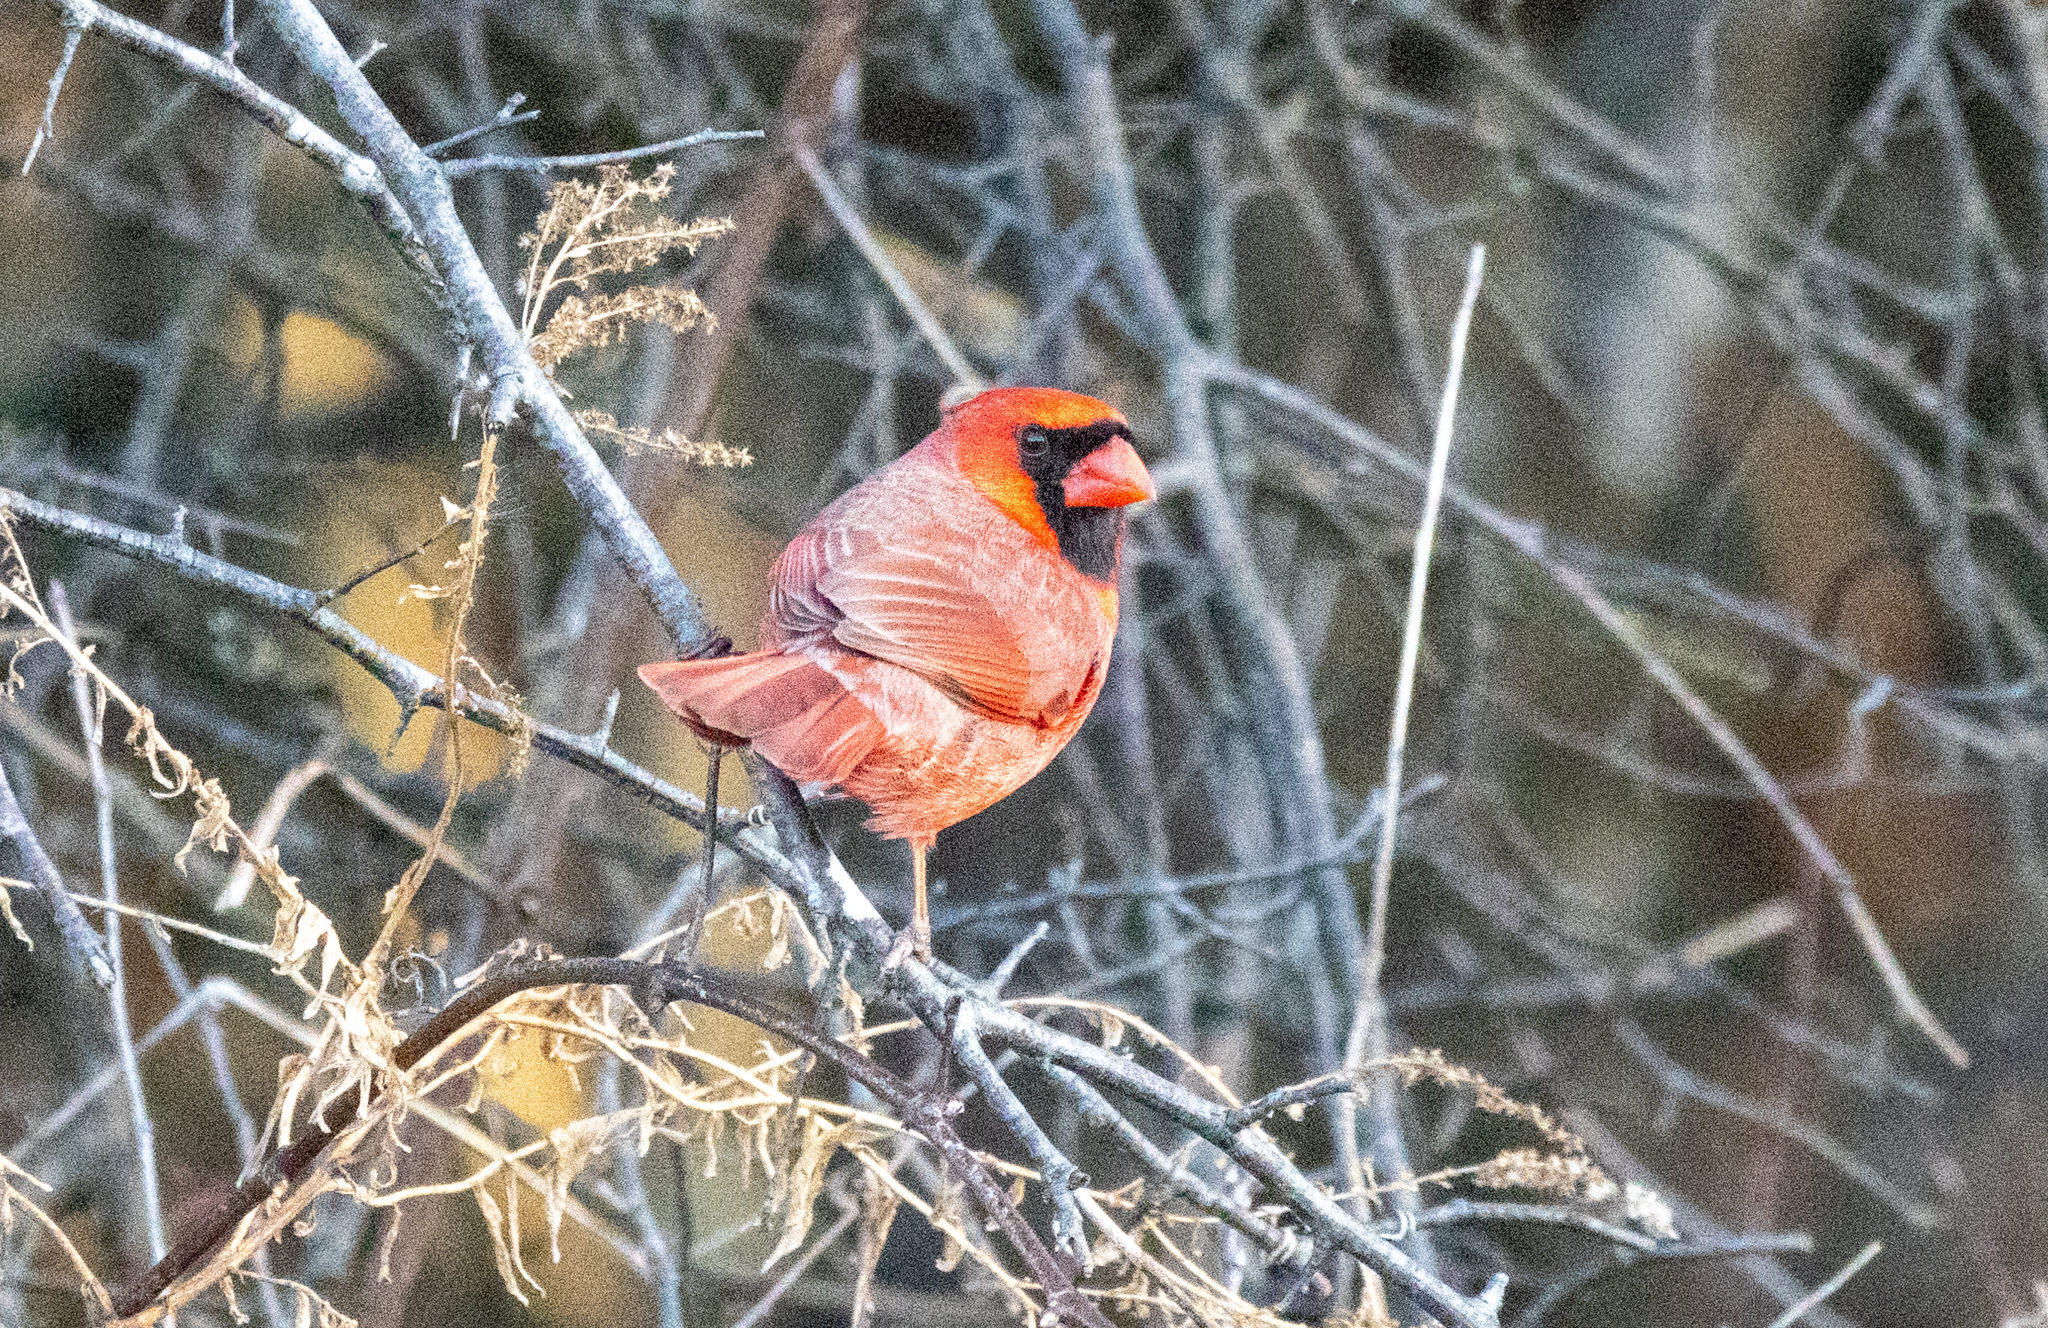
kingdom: Animalia
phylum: Chordata
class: Aves
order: Passeriformes
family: Cardinalidae
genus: Cardinalis
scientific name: Cardinalis cardinalis
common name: Northern cardinal
